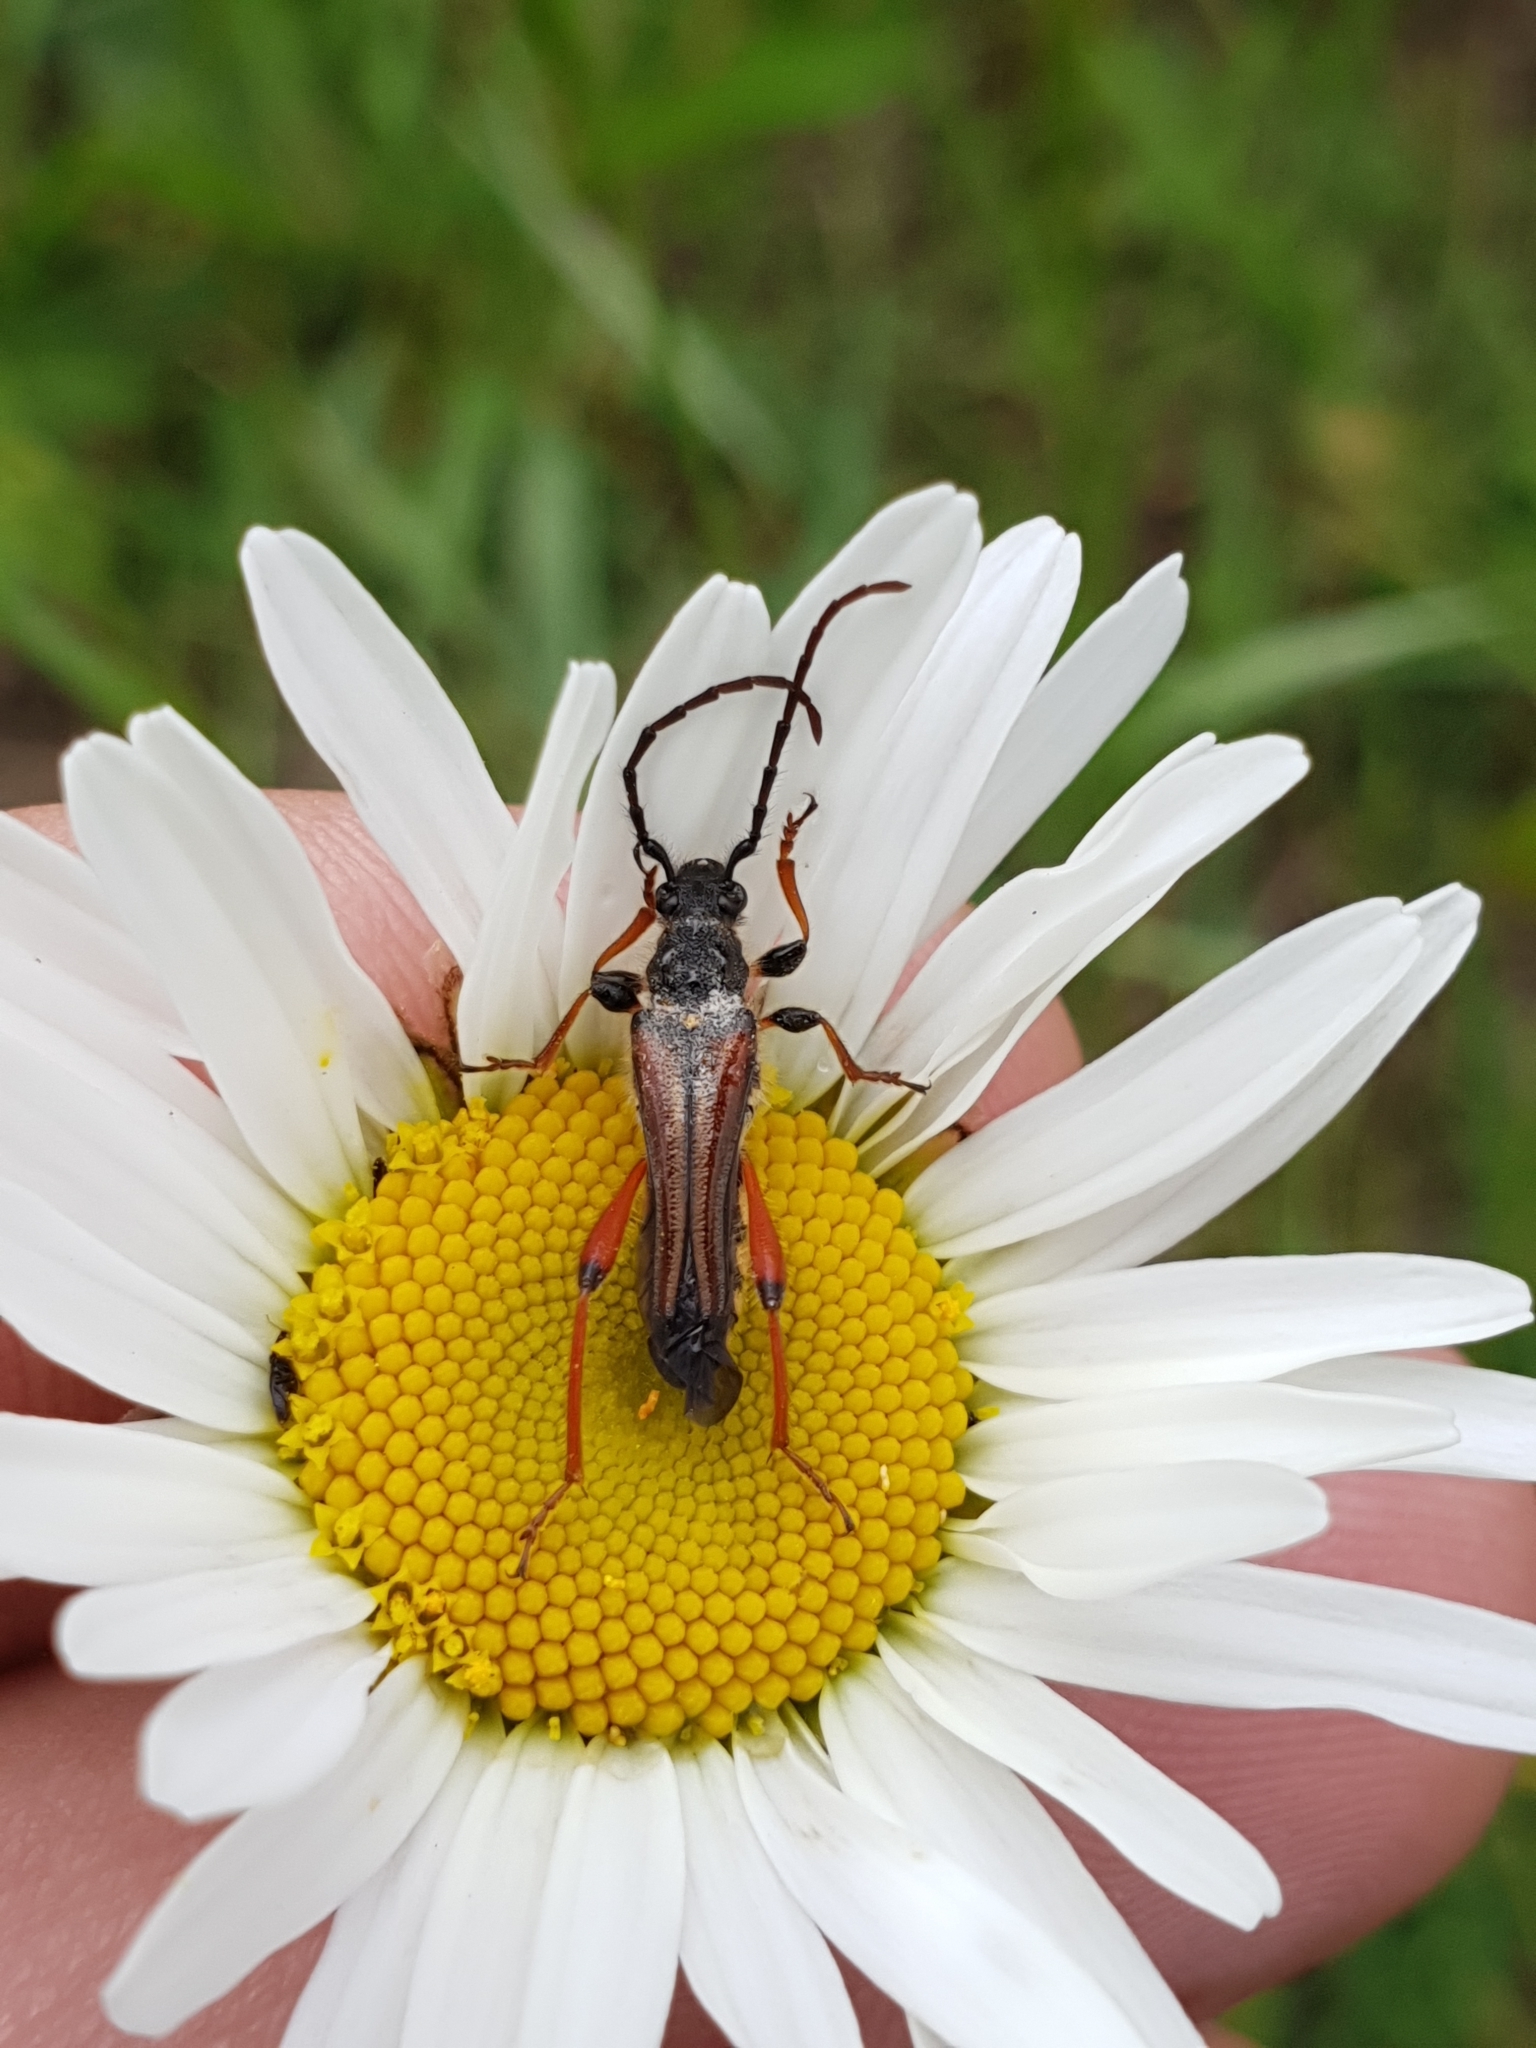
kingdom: Animalia
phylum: Arthropoda
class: Insecta
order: Coleoptera
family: Cerambycidae
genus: Stenopterus
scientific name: Stenopterus rufus
